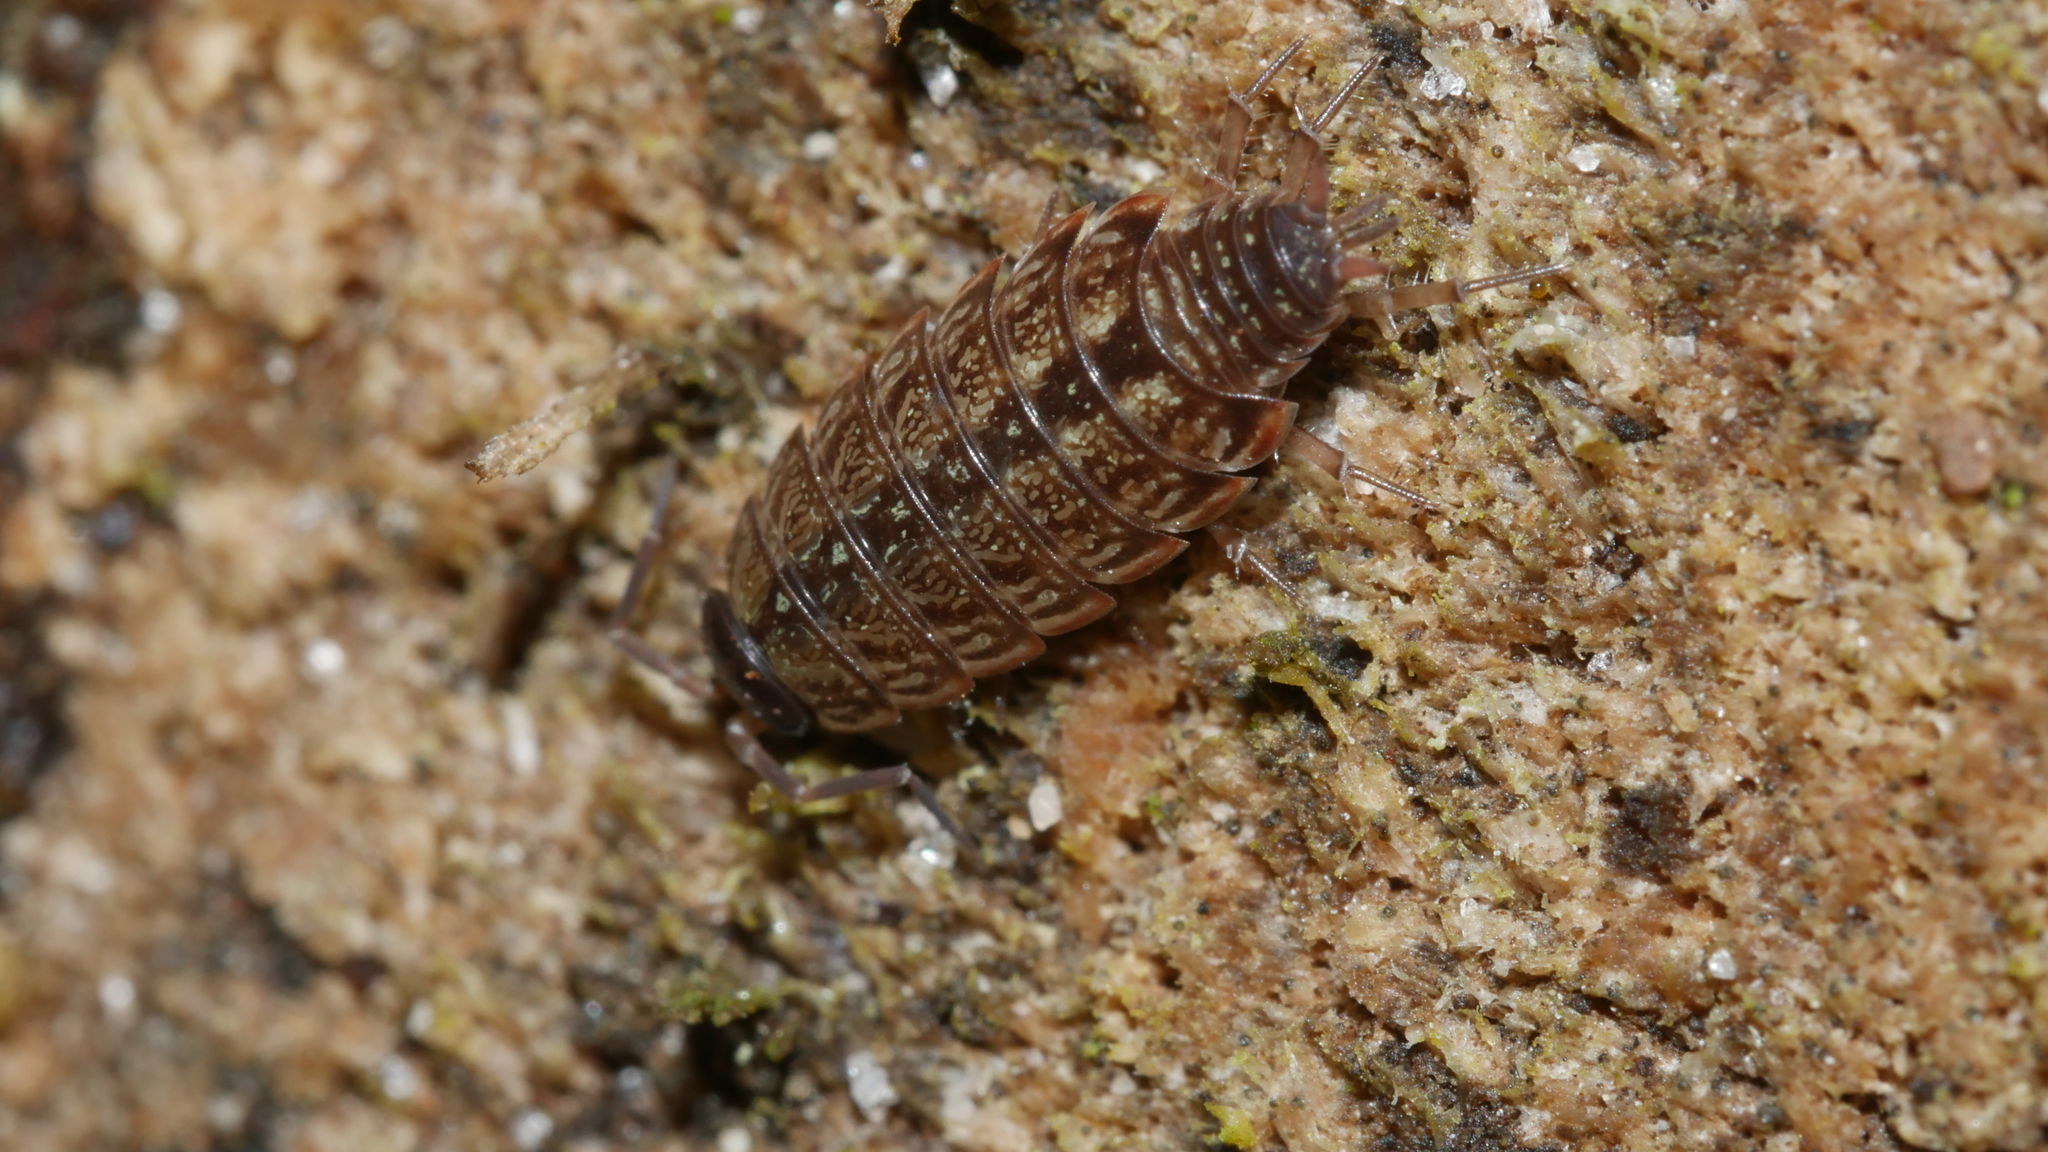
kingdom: Animalia
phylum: Arthropoda
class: Malacostraca
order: Isopoda
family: Philosciidae
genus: Philoscia
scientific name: Philoscia muscorum
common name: Common striped woodlouse
